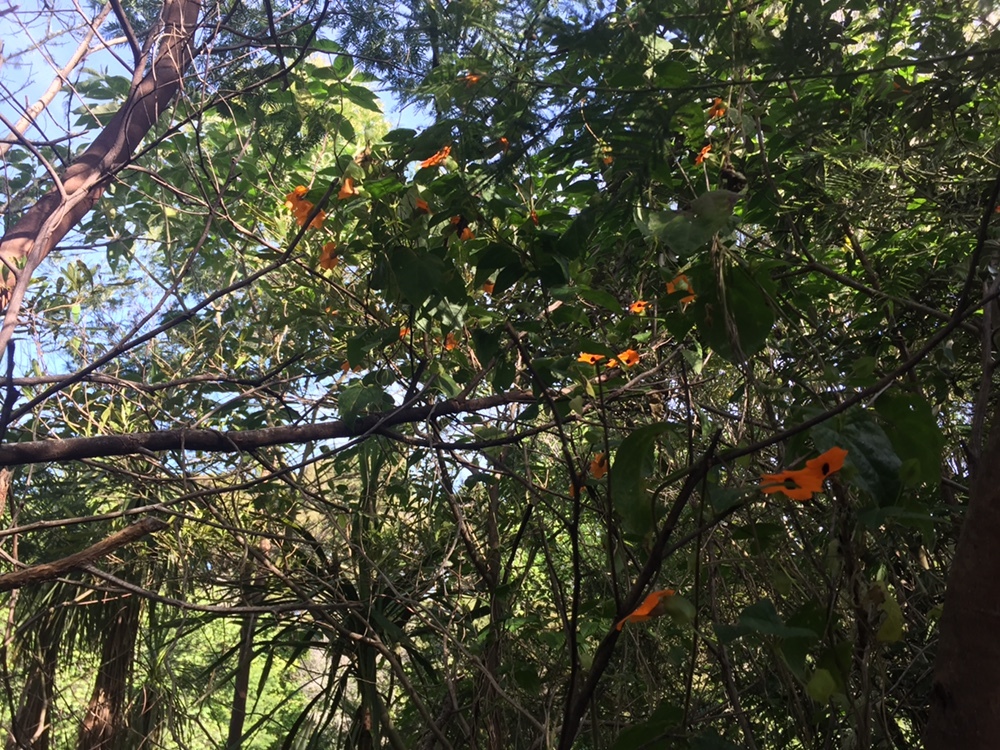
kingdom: Plantae
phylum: Tracheophyta
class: Magnoliopsida
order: Lamiales
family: Acanthaceae
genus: Thunbergia
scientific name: Thunbergia alata
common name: Blackeyed susan vine
